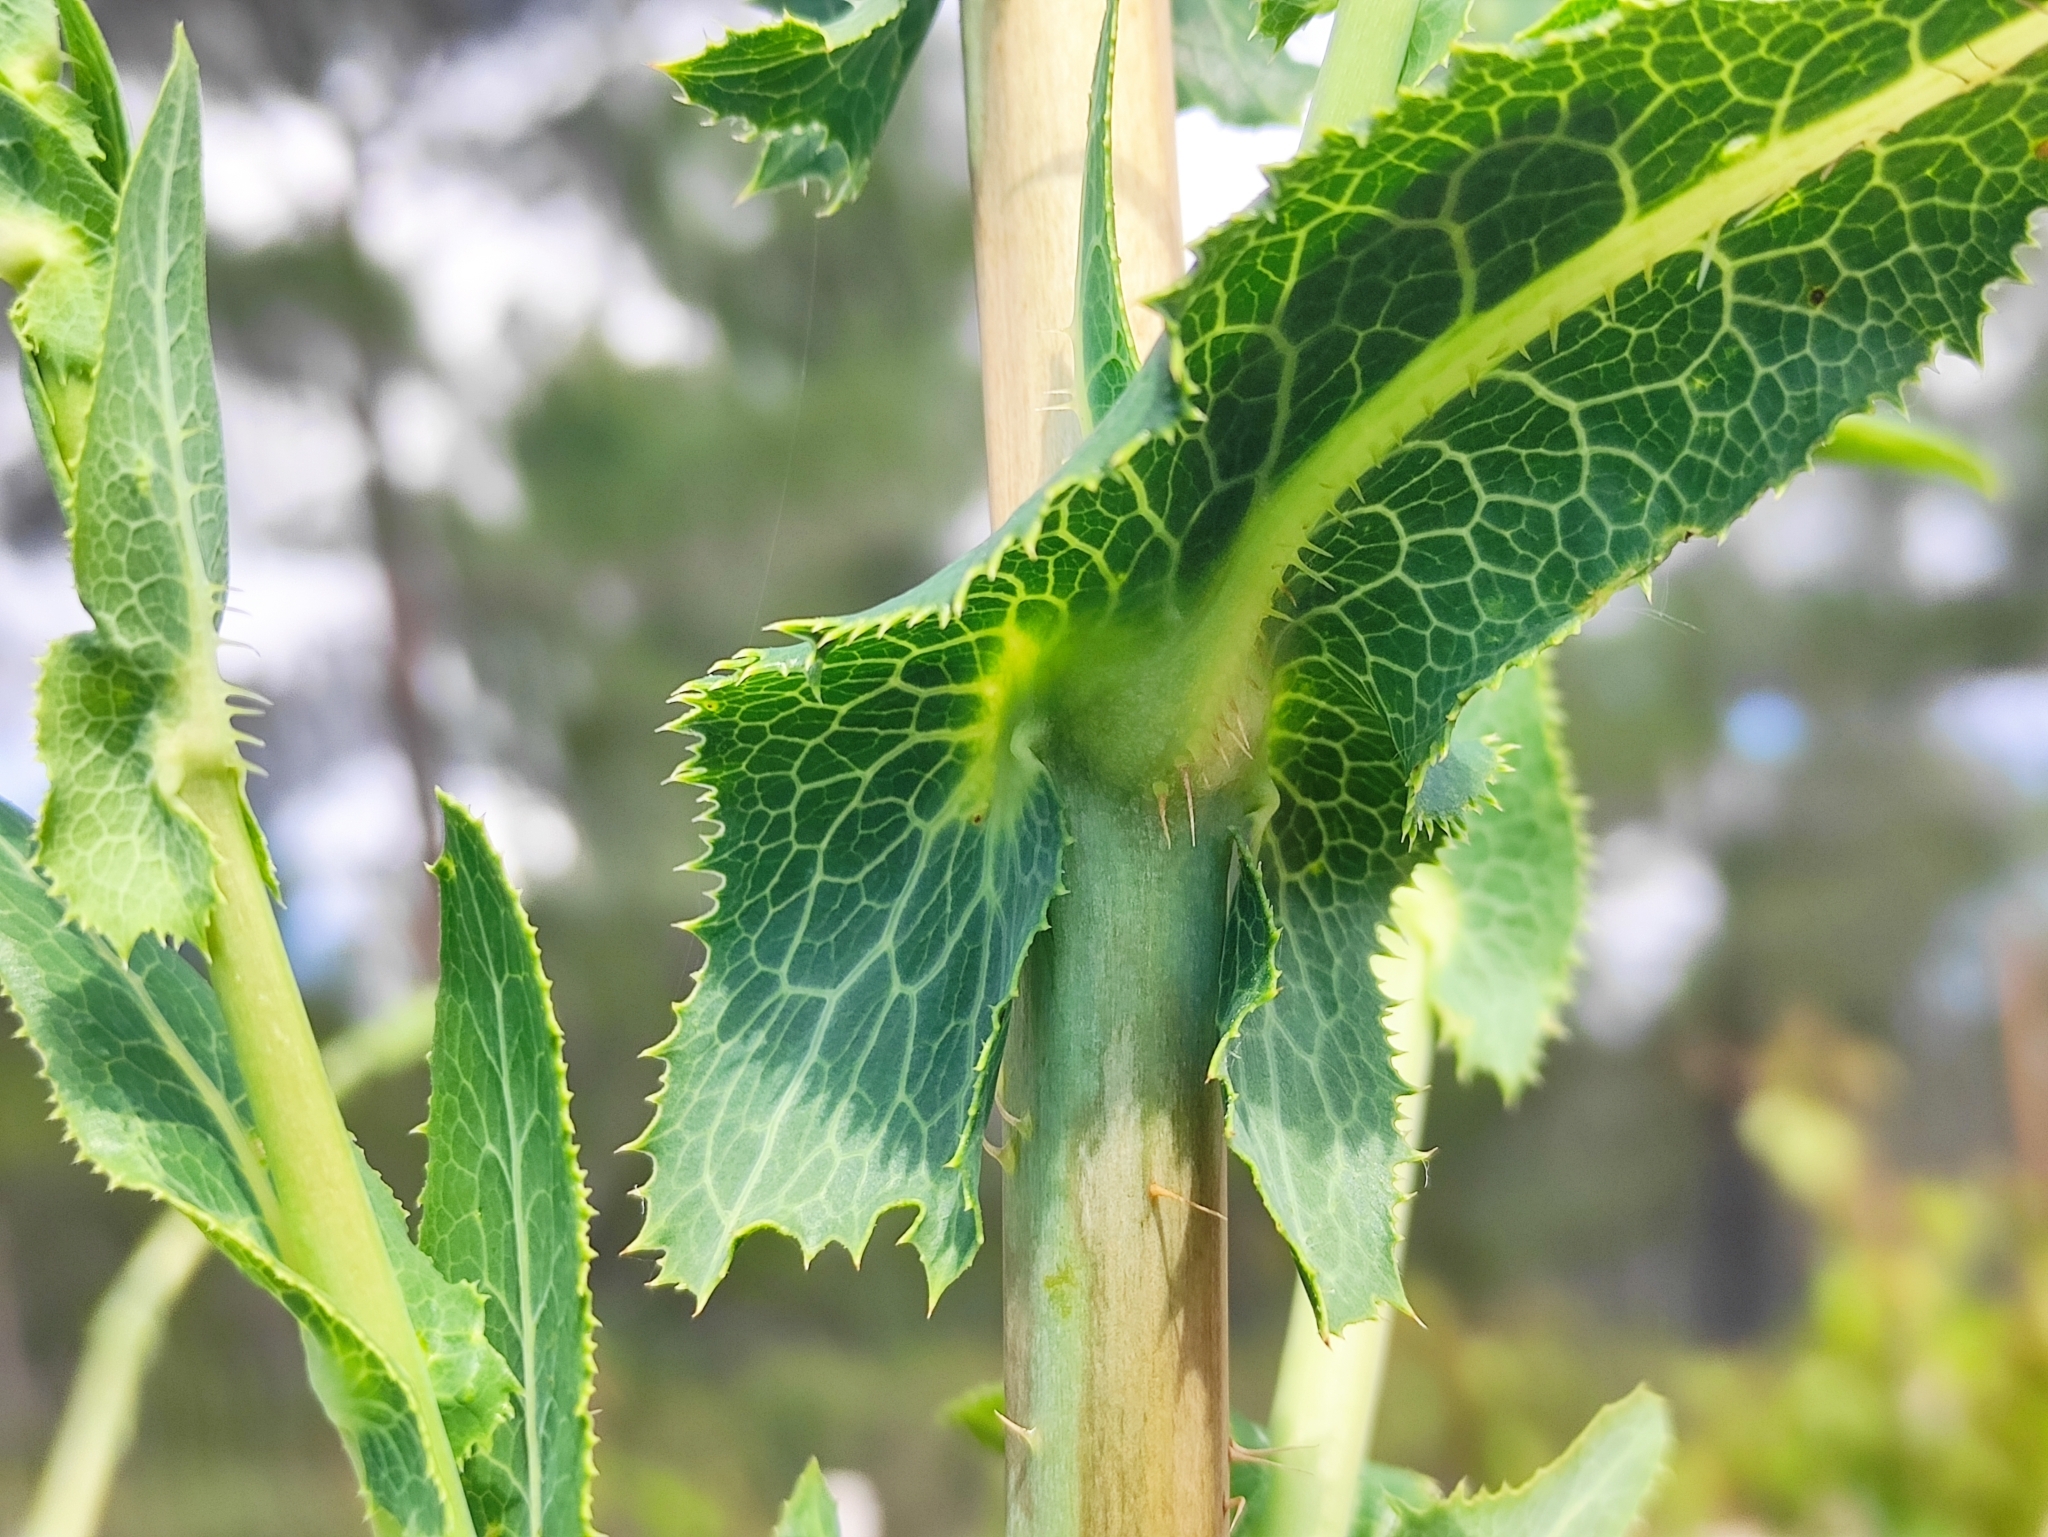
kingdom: Plantae
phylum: Tracheophyta
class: Magnoliopsida
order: Asterales
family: Asteraceae
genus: Lactuca
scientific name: Lactuca serriola
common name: Prickly lettuce
